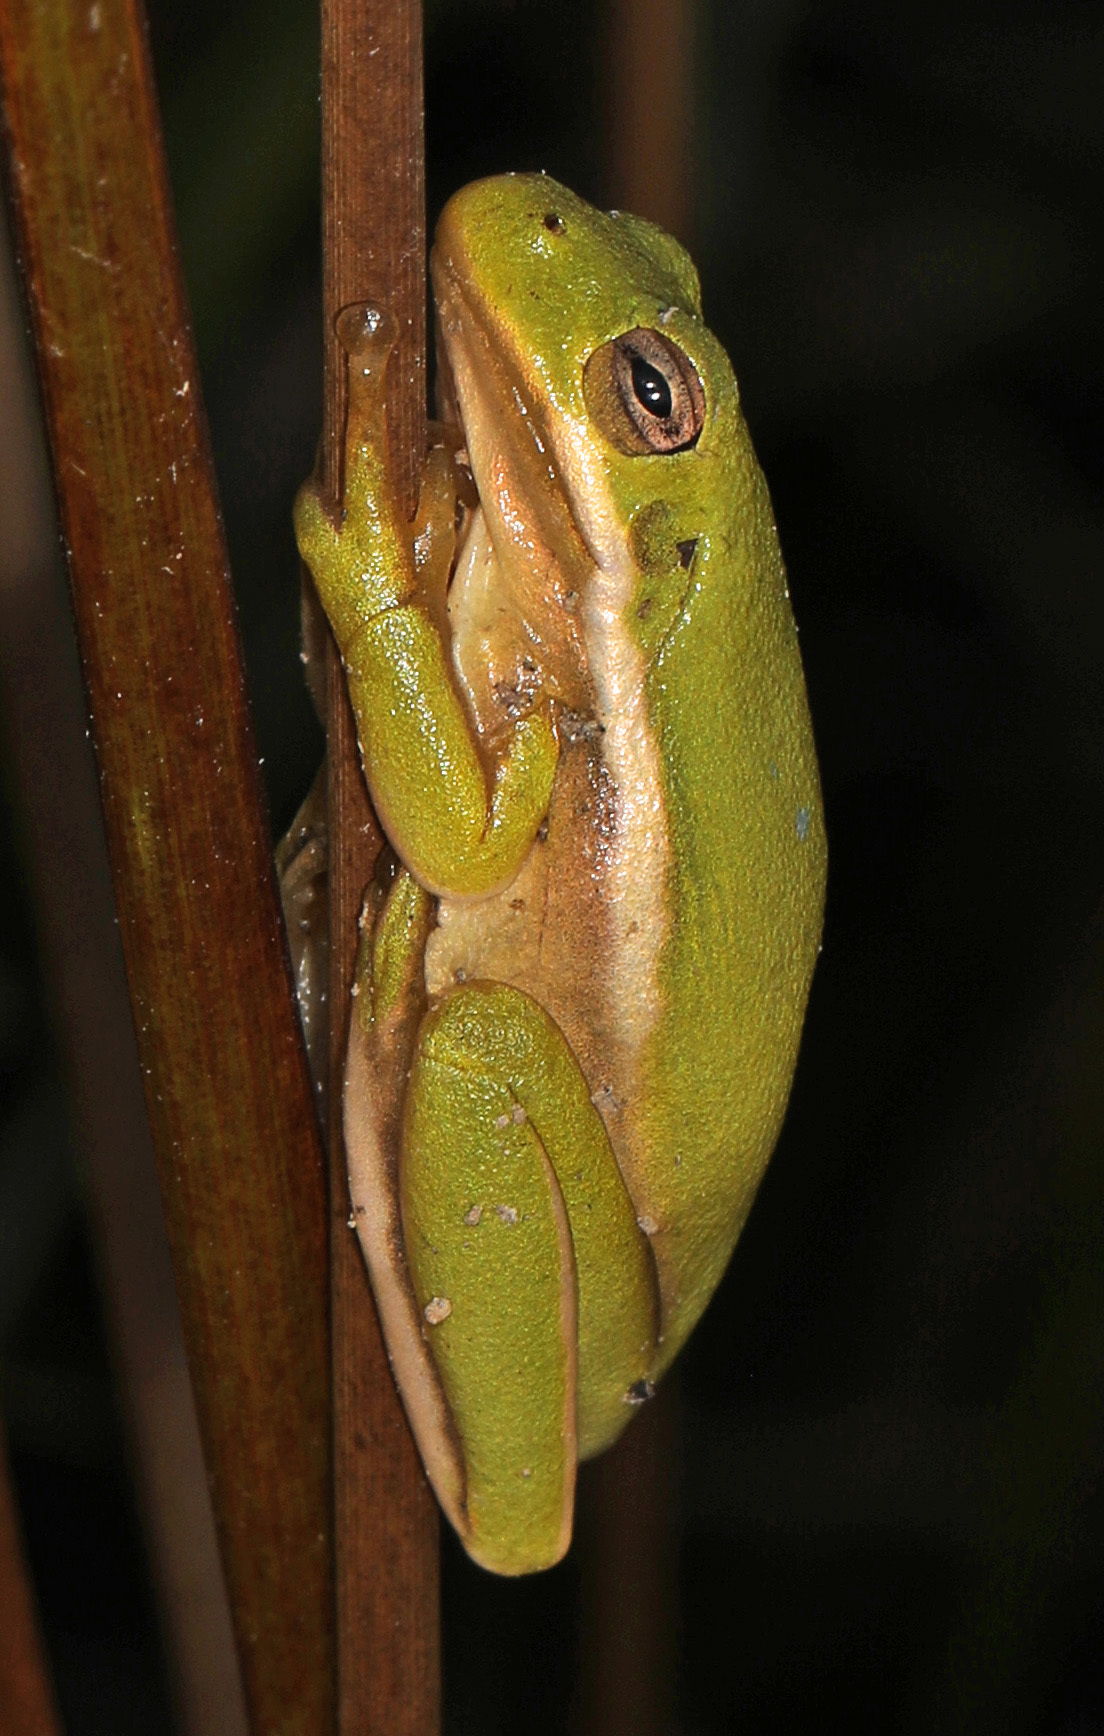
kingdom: Animalia
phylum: Chordata
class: Amphibia
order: Anura
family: Hylidae
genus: Dryophytes
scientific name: Dryophytes cinereus
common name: Green treefrog
